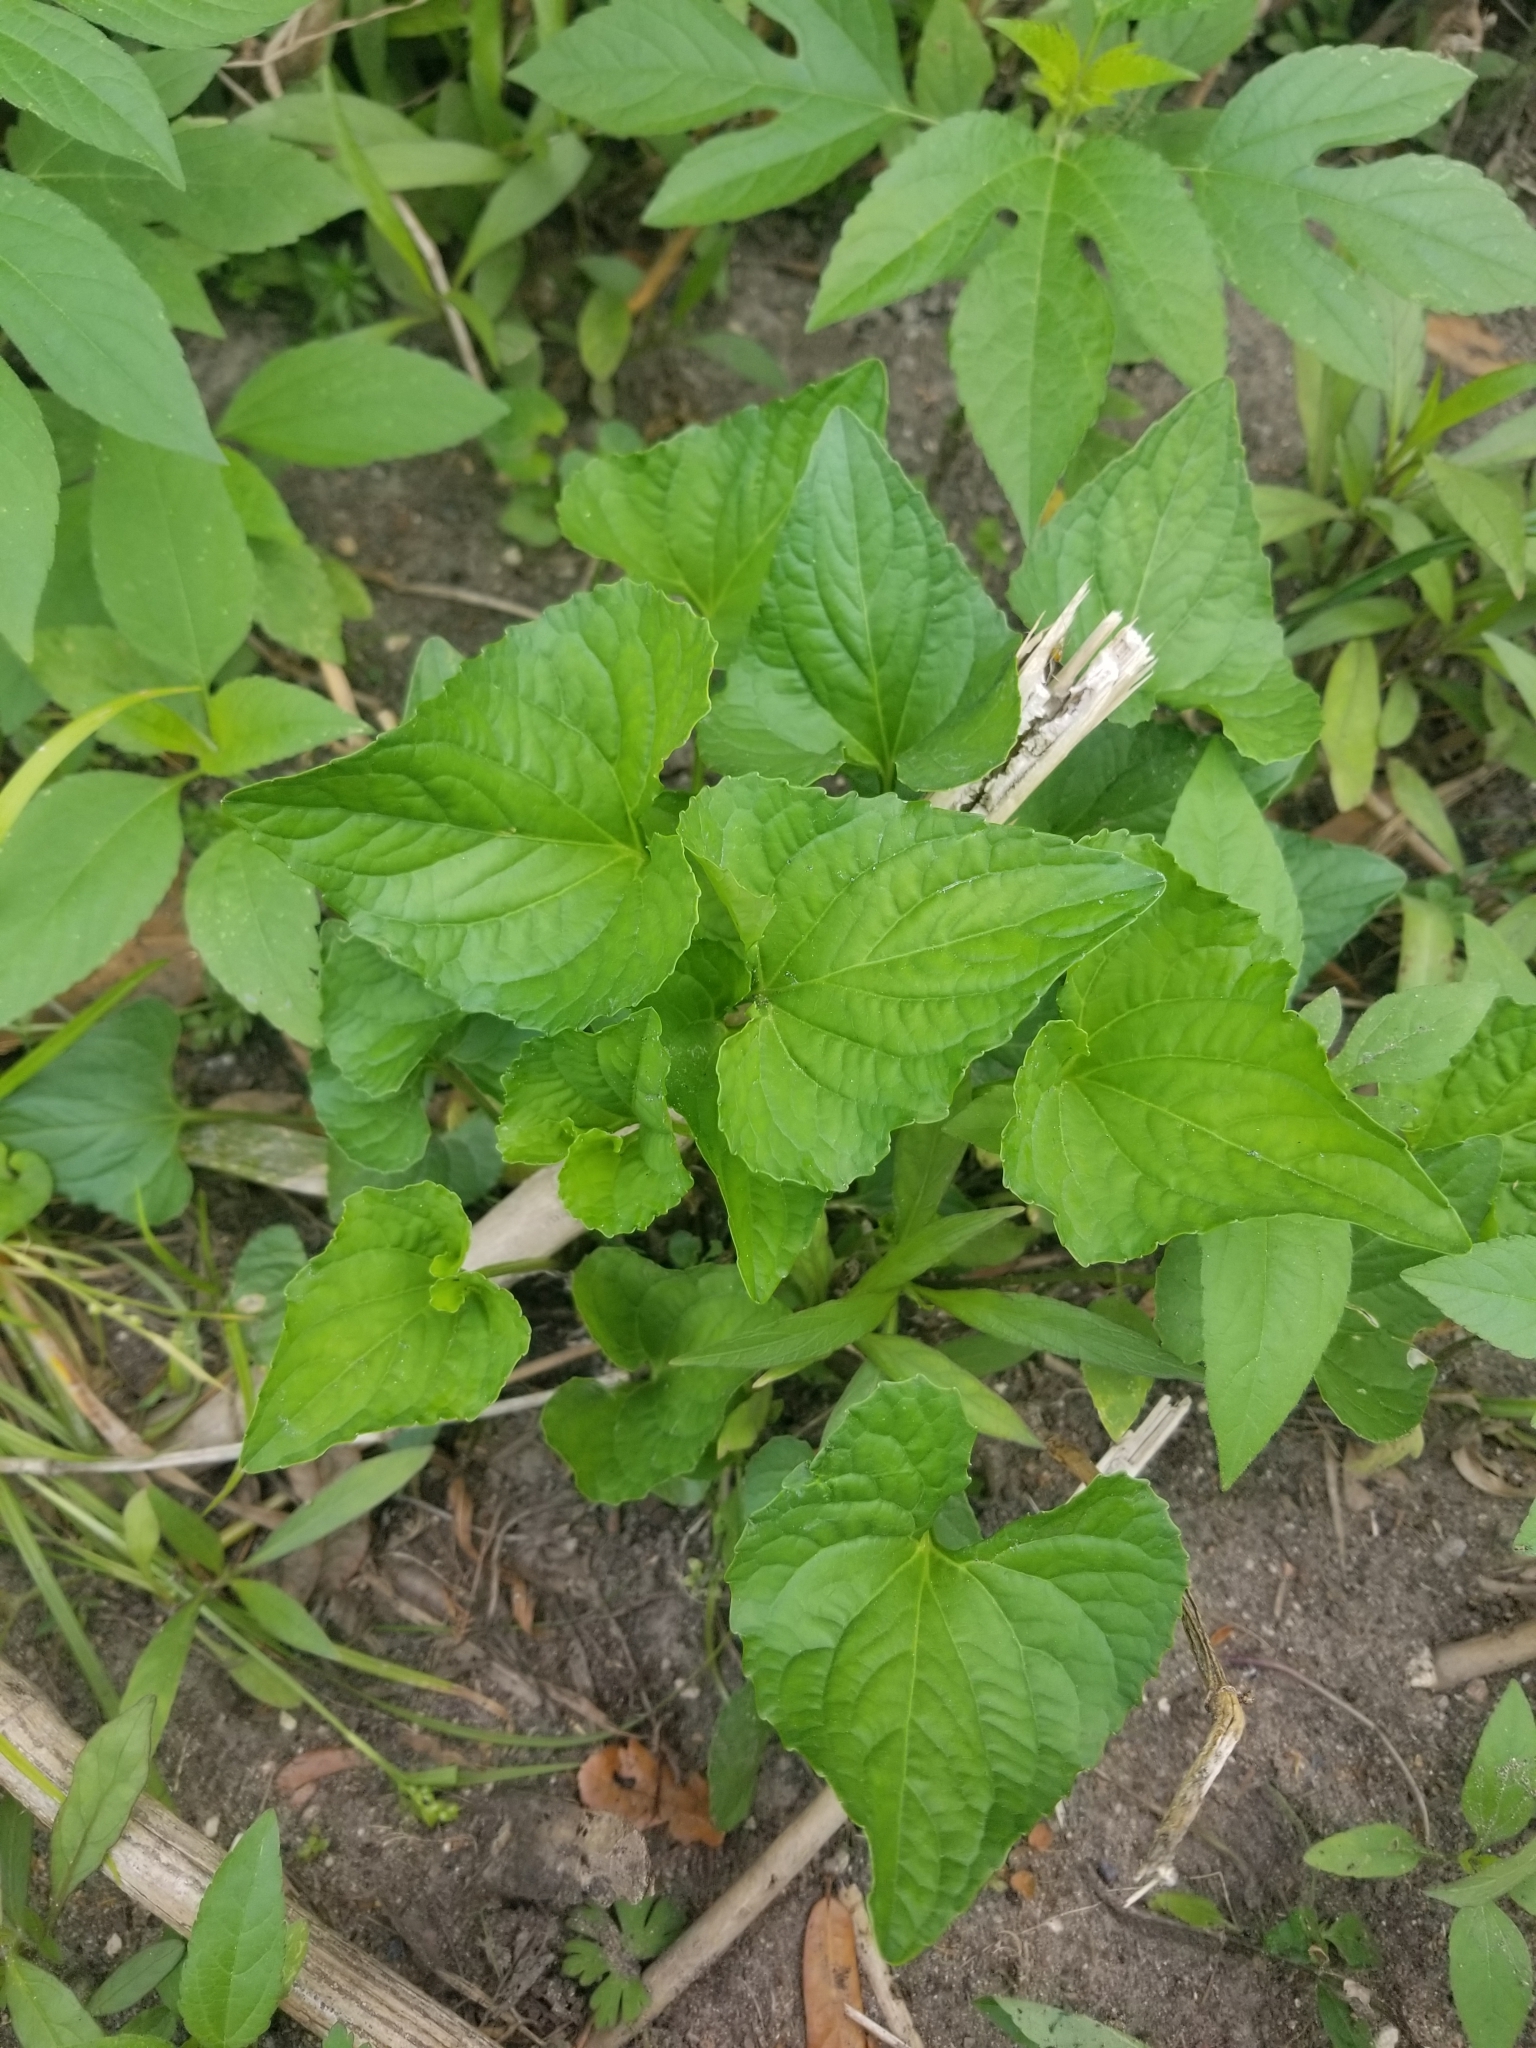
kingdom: Plantae
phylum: Tracheophyta
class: Magnoliopsida
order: Malpighiales
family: Violaceae
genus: Viola
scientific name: Viola missouriensis
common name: Missouri violet
